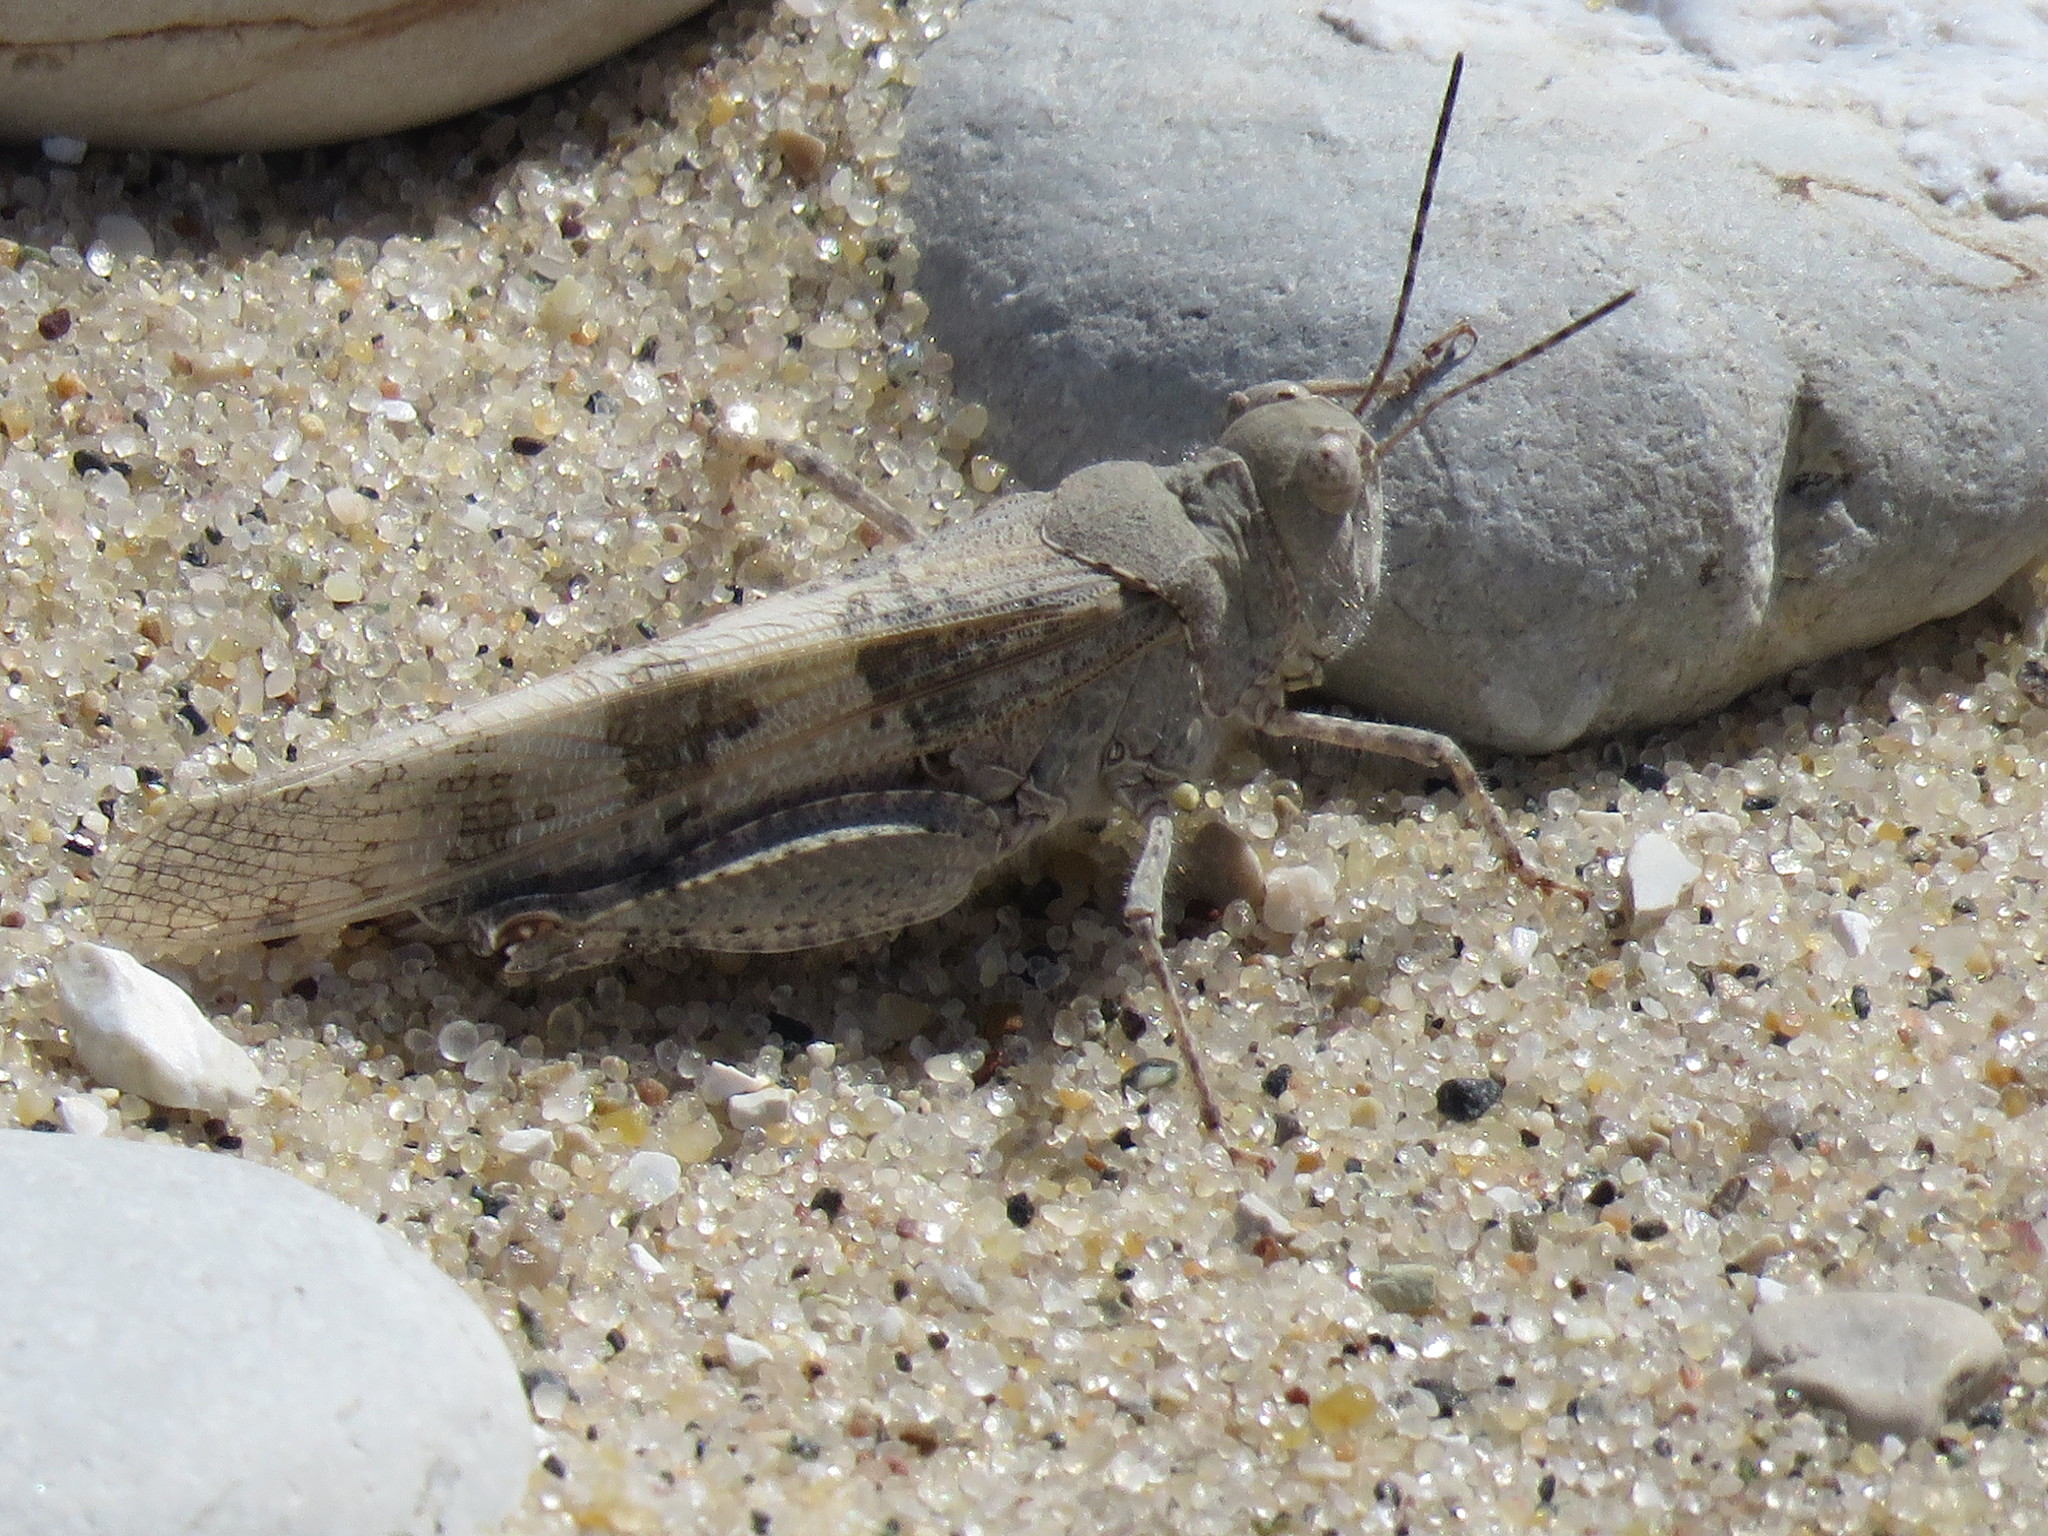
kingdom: Animalia
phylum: Arthropoda
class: Insecta
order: Orthoptera
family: Acrididae
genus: Trimerotropis
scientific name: Trimerotropis huroniana
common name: Lake huron locust
